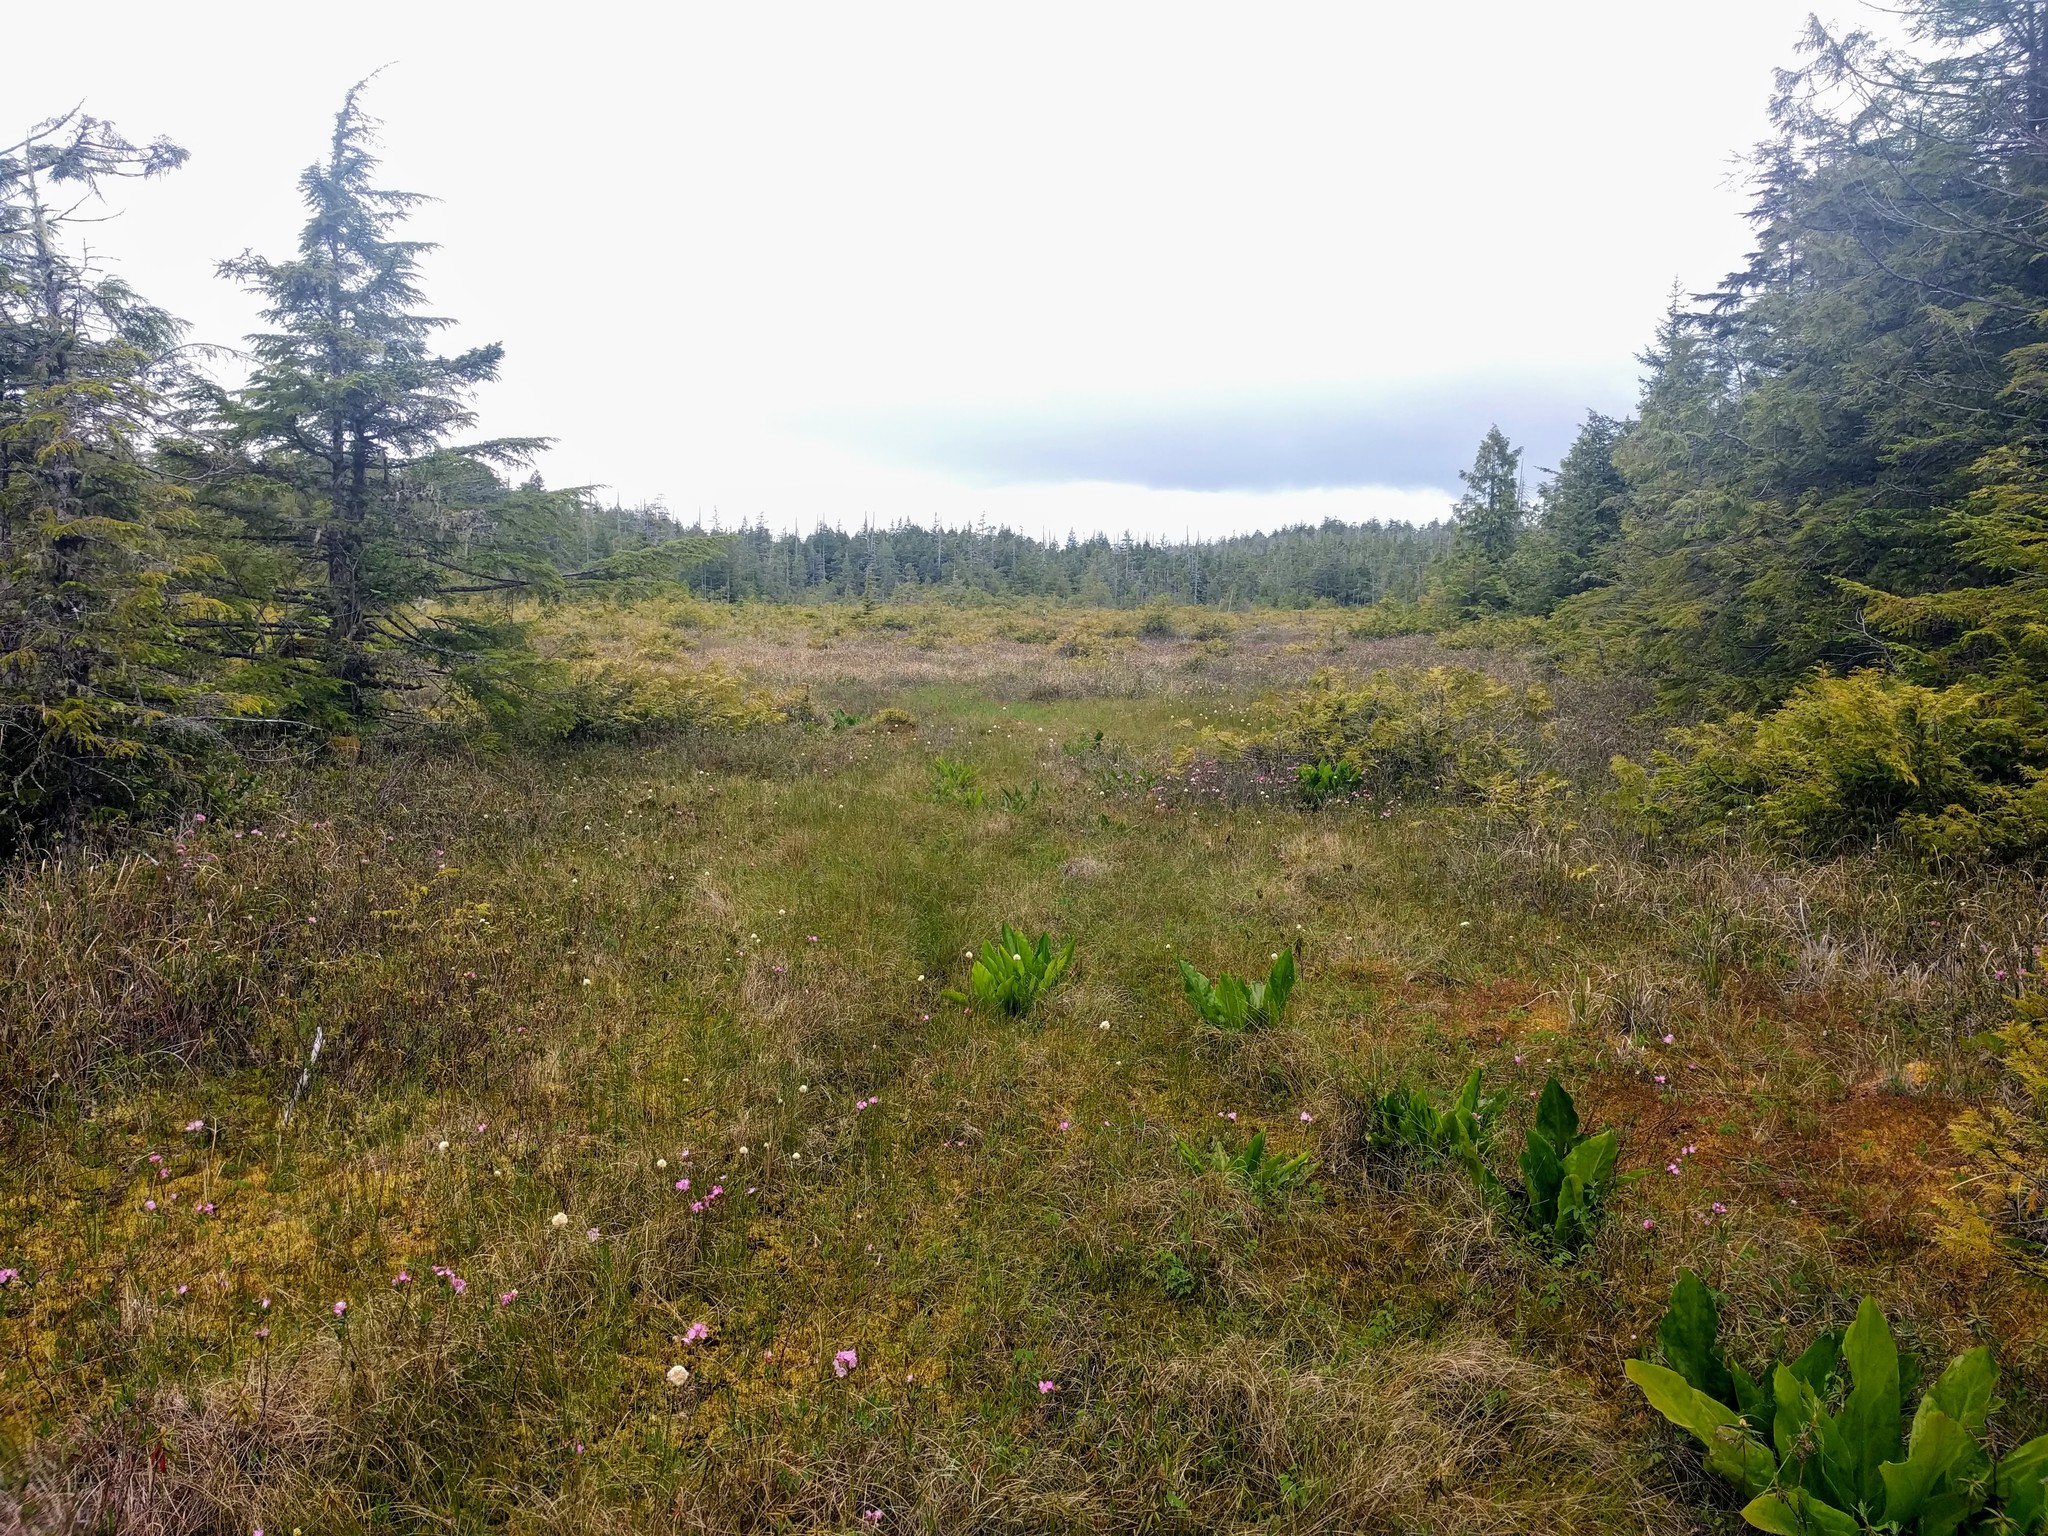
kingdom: Plantae
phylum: Tracheophyta
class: Liliopsida
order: Alismatales
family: Araceae
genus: Lysichiton
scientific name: Lysichiton americanus
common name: American skunk cabbage
